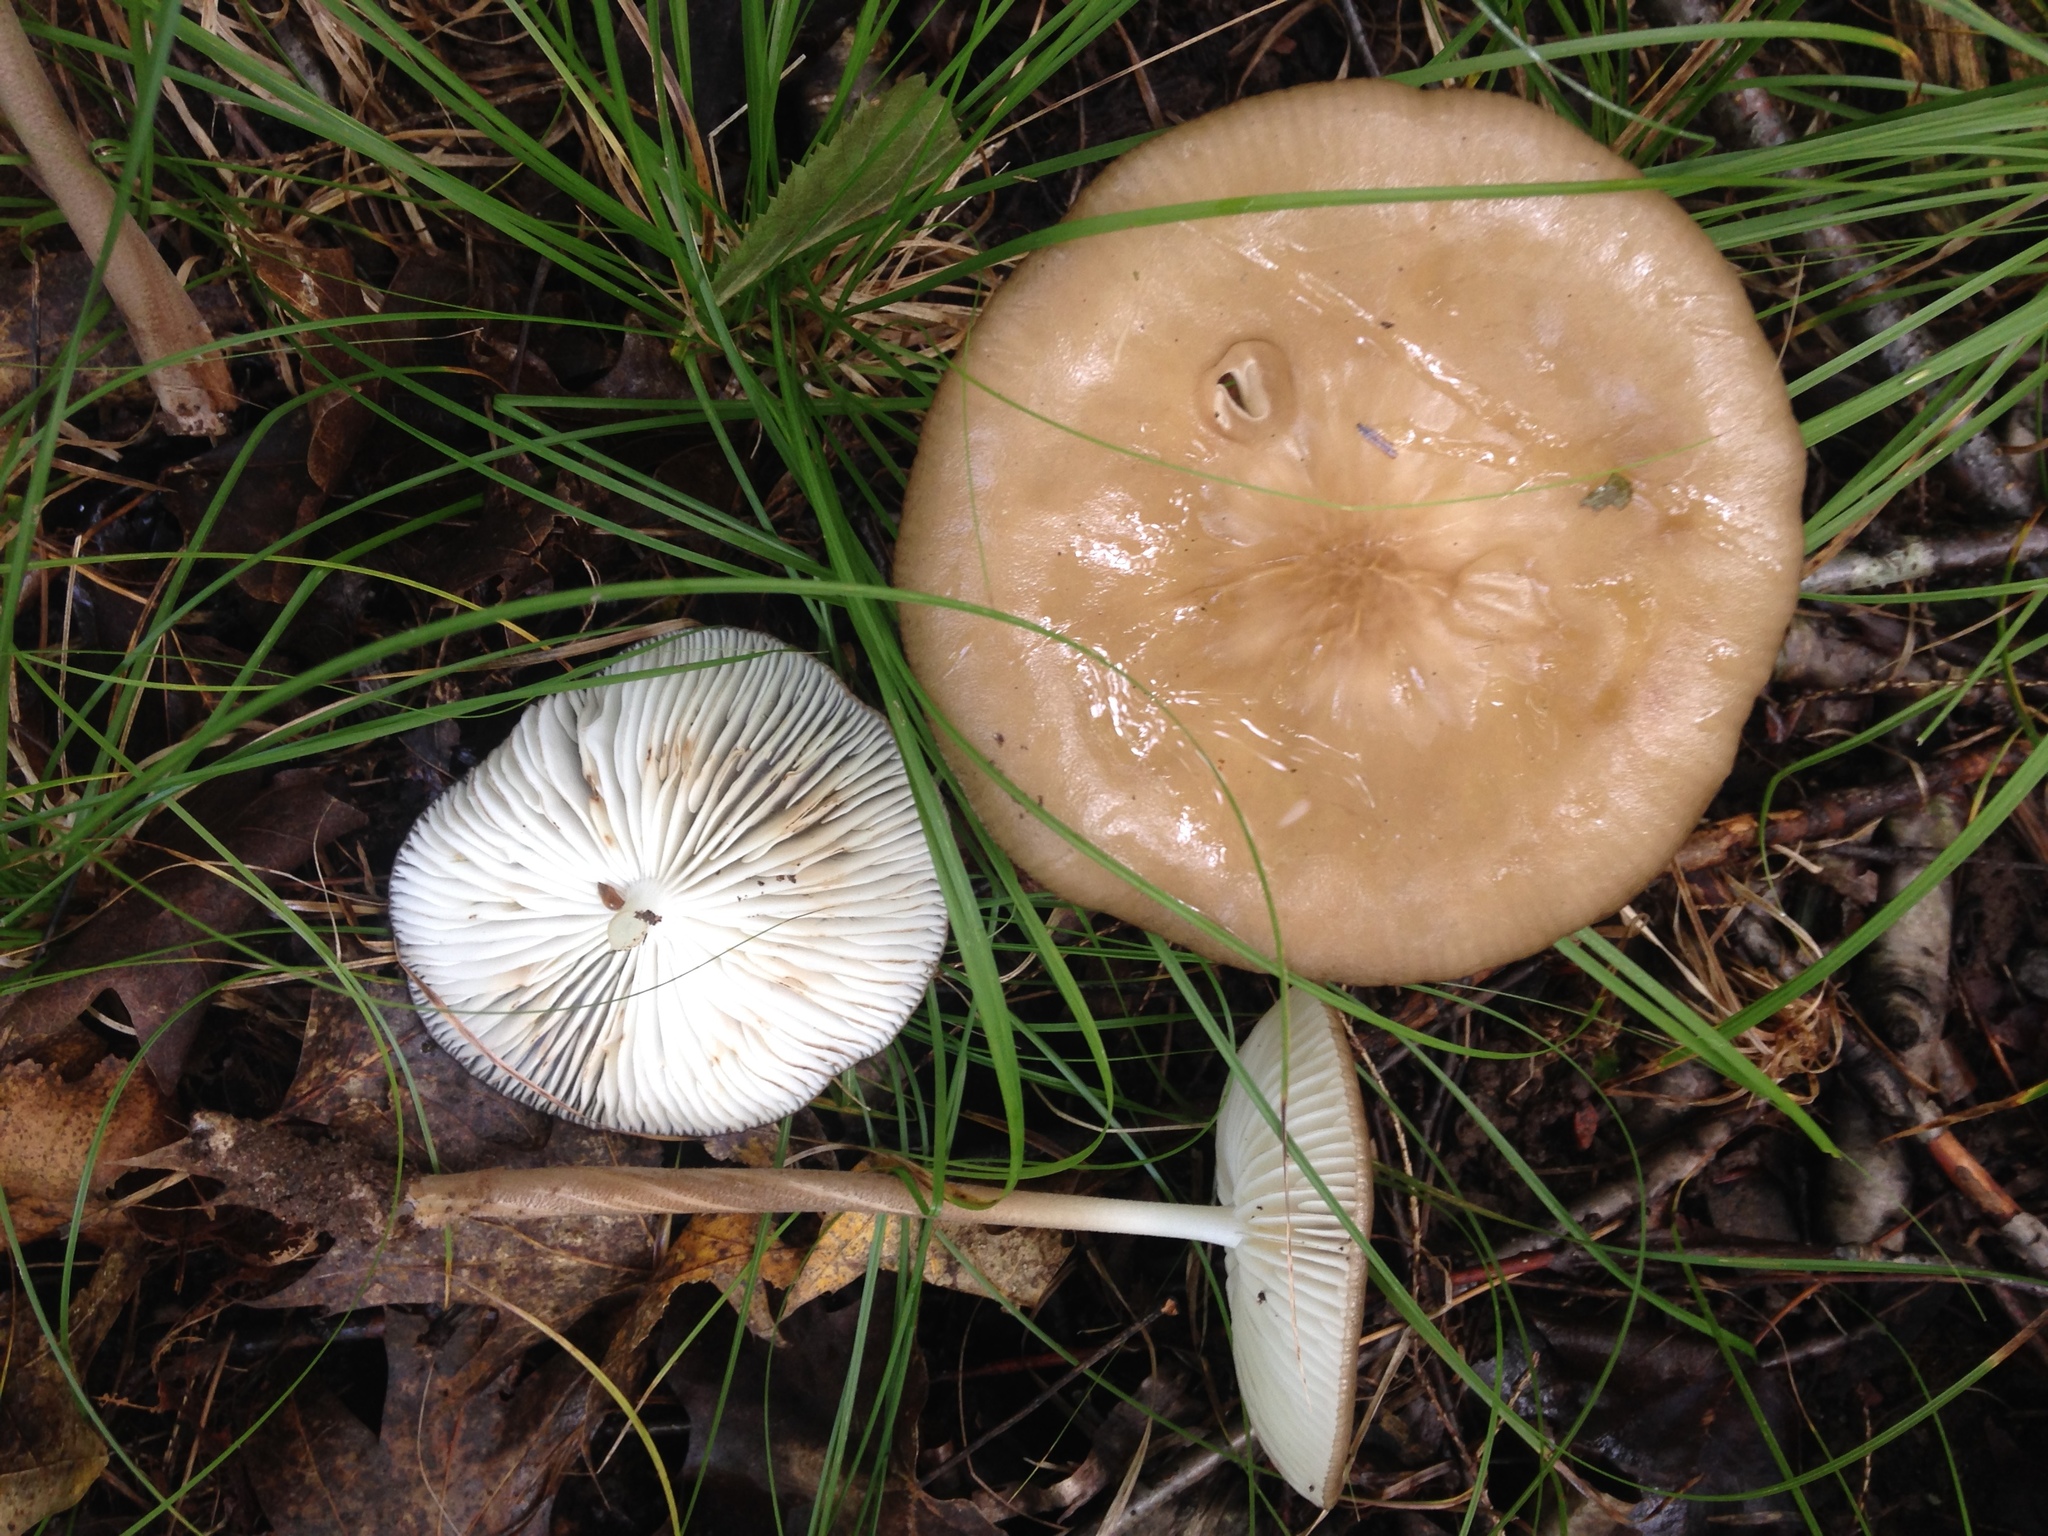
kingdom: Fungi
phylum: Basidiomycota
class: Agaricomycetes
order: Agaricales
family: Physalacriaceae
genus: Hymenopellis
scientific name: Hymenopellis rubrobrunnescens
